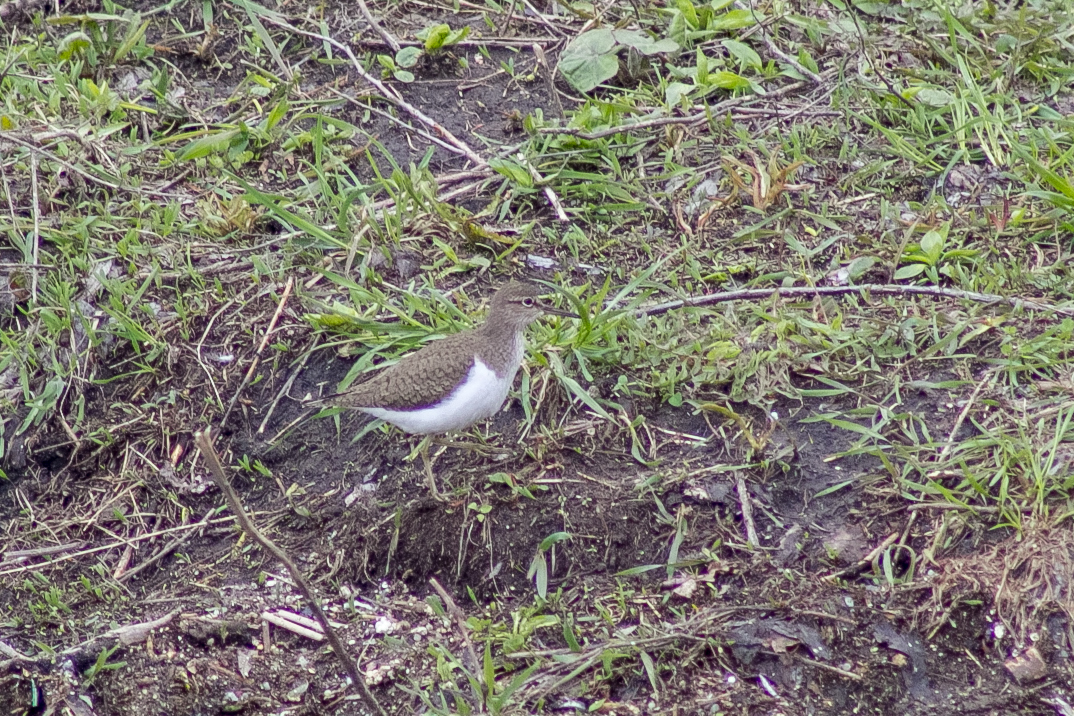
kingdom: Animalia
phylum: Chordata
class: Aves
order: Charadriiformes
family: Scolopacidae
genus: Actitis
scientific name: Actitis hypoleucos
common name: Common sandpiper
